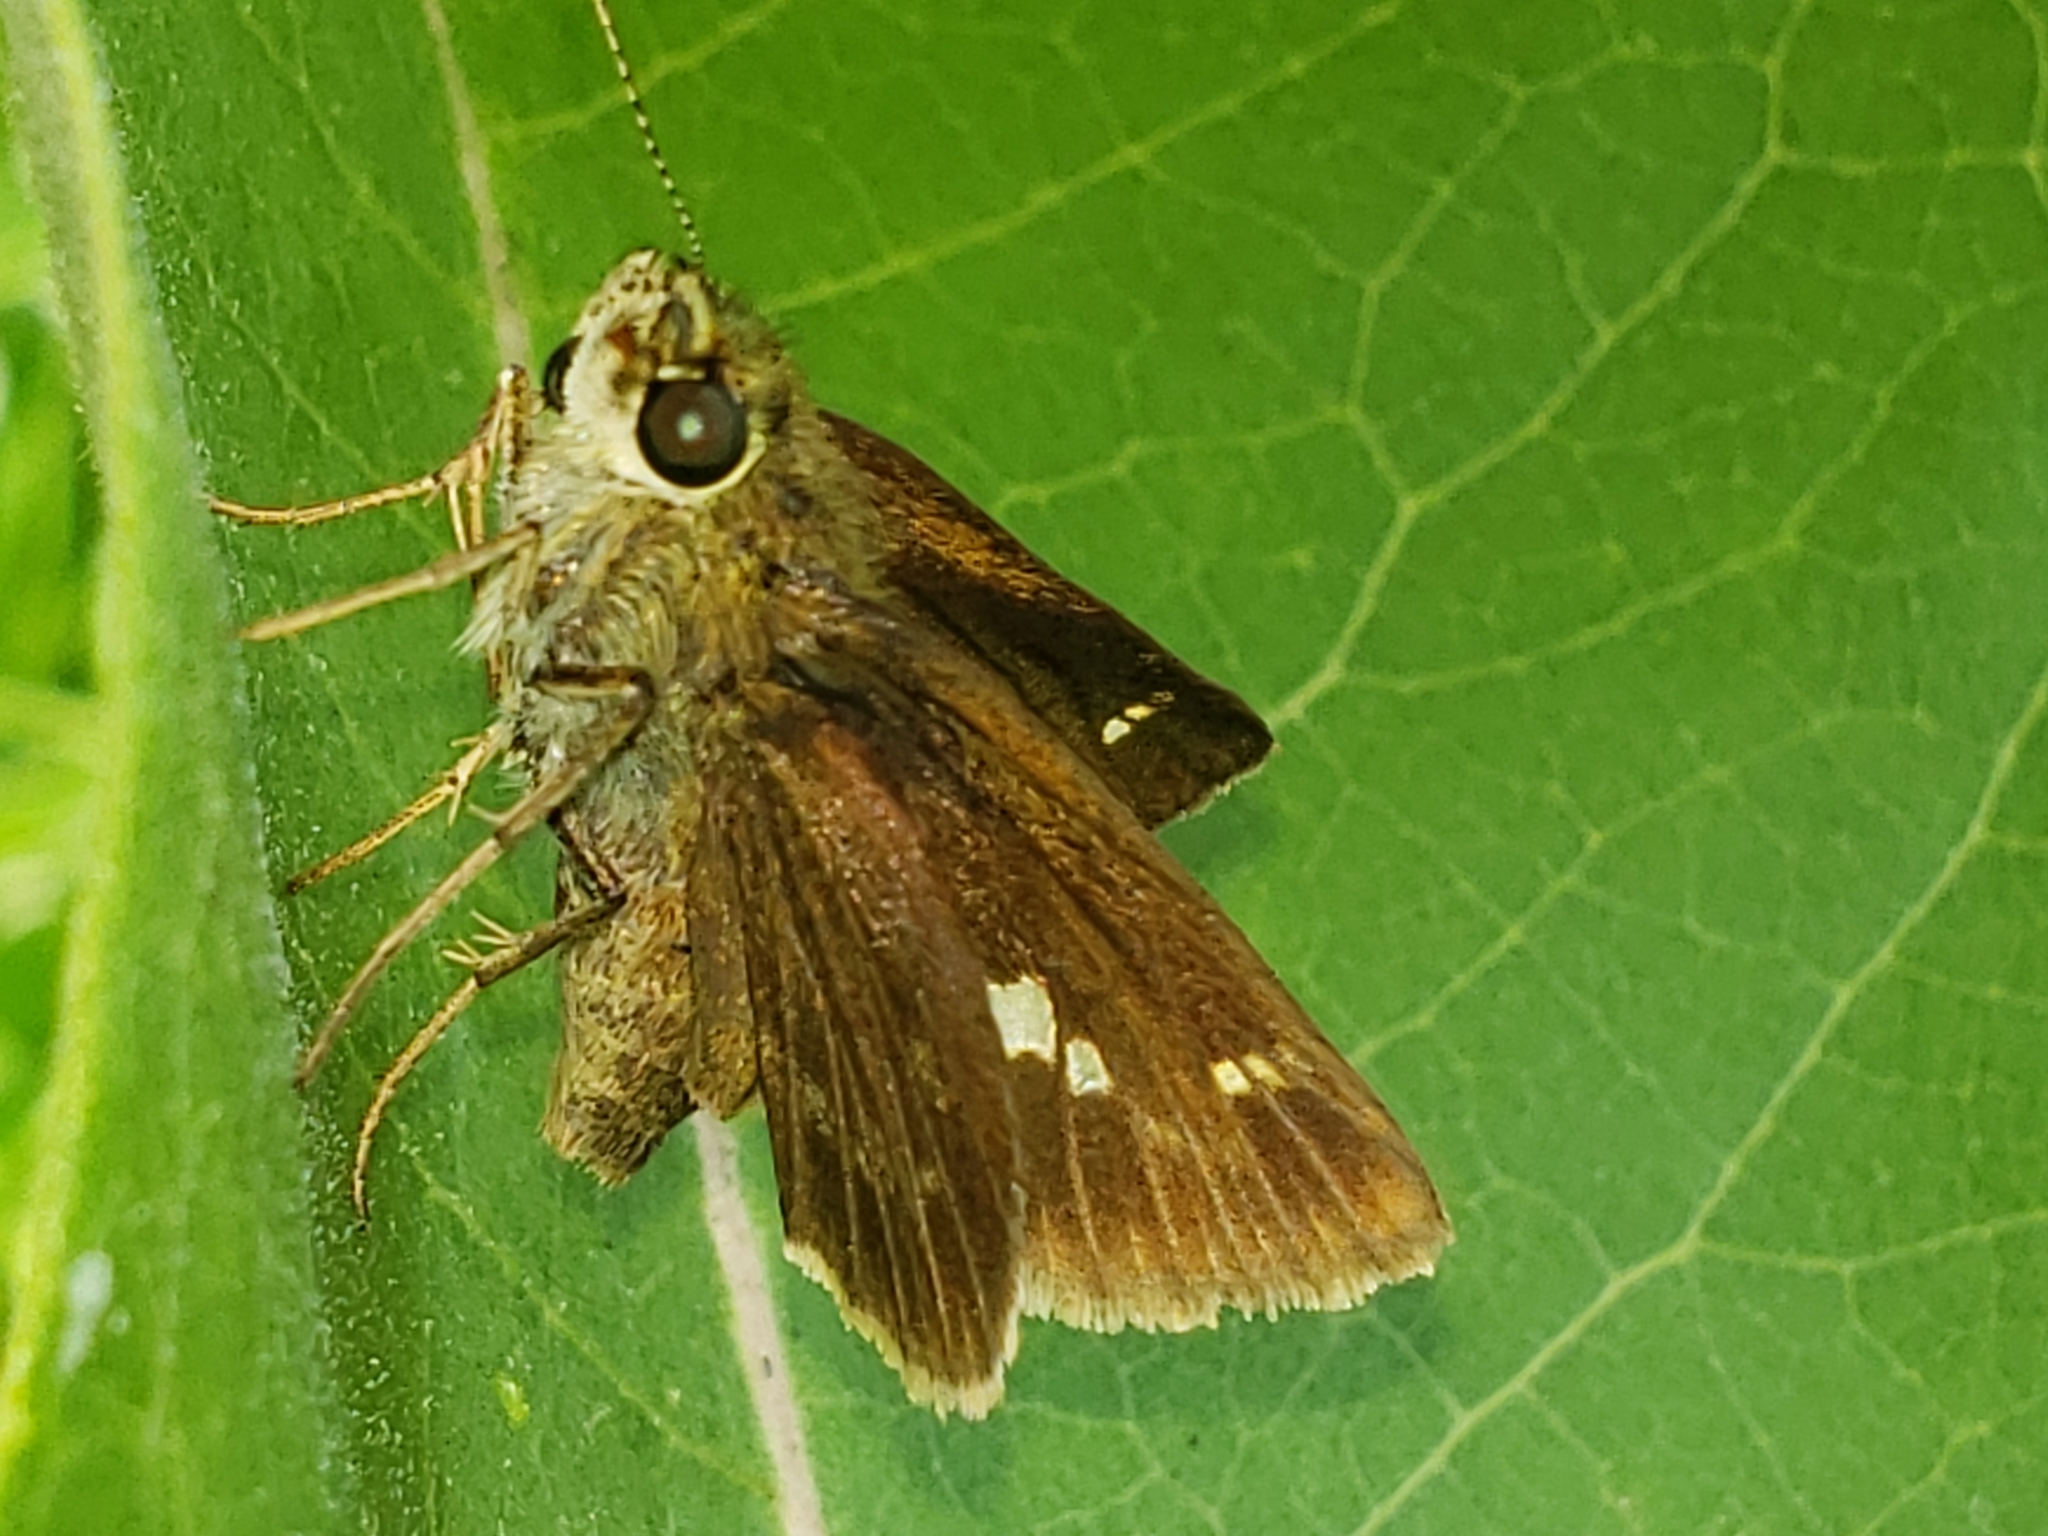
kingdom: Animalia
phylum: Arthropoda
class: Insecta
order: Lepidoptera
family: Hesperiidae
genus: Vernia
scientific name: Vernia verna
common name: Little glassywing
